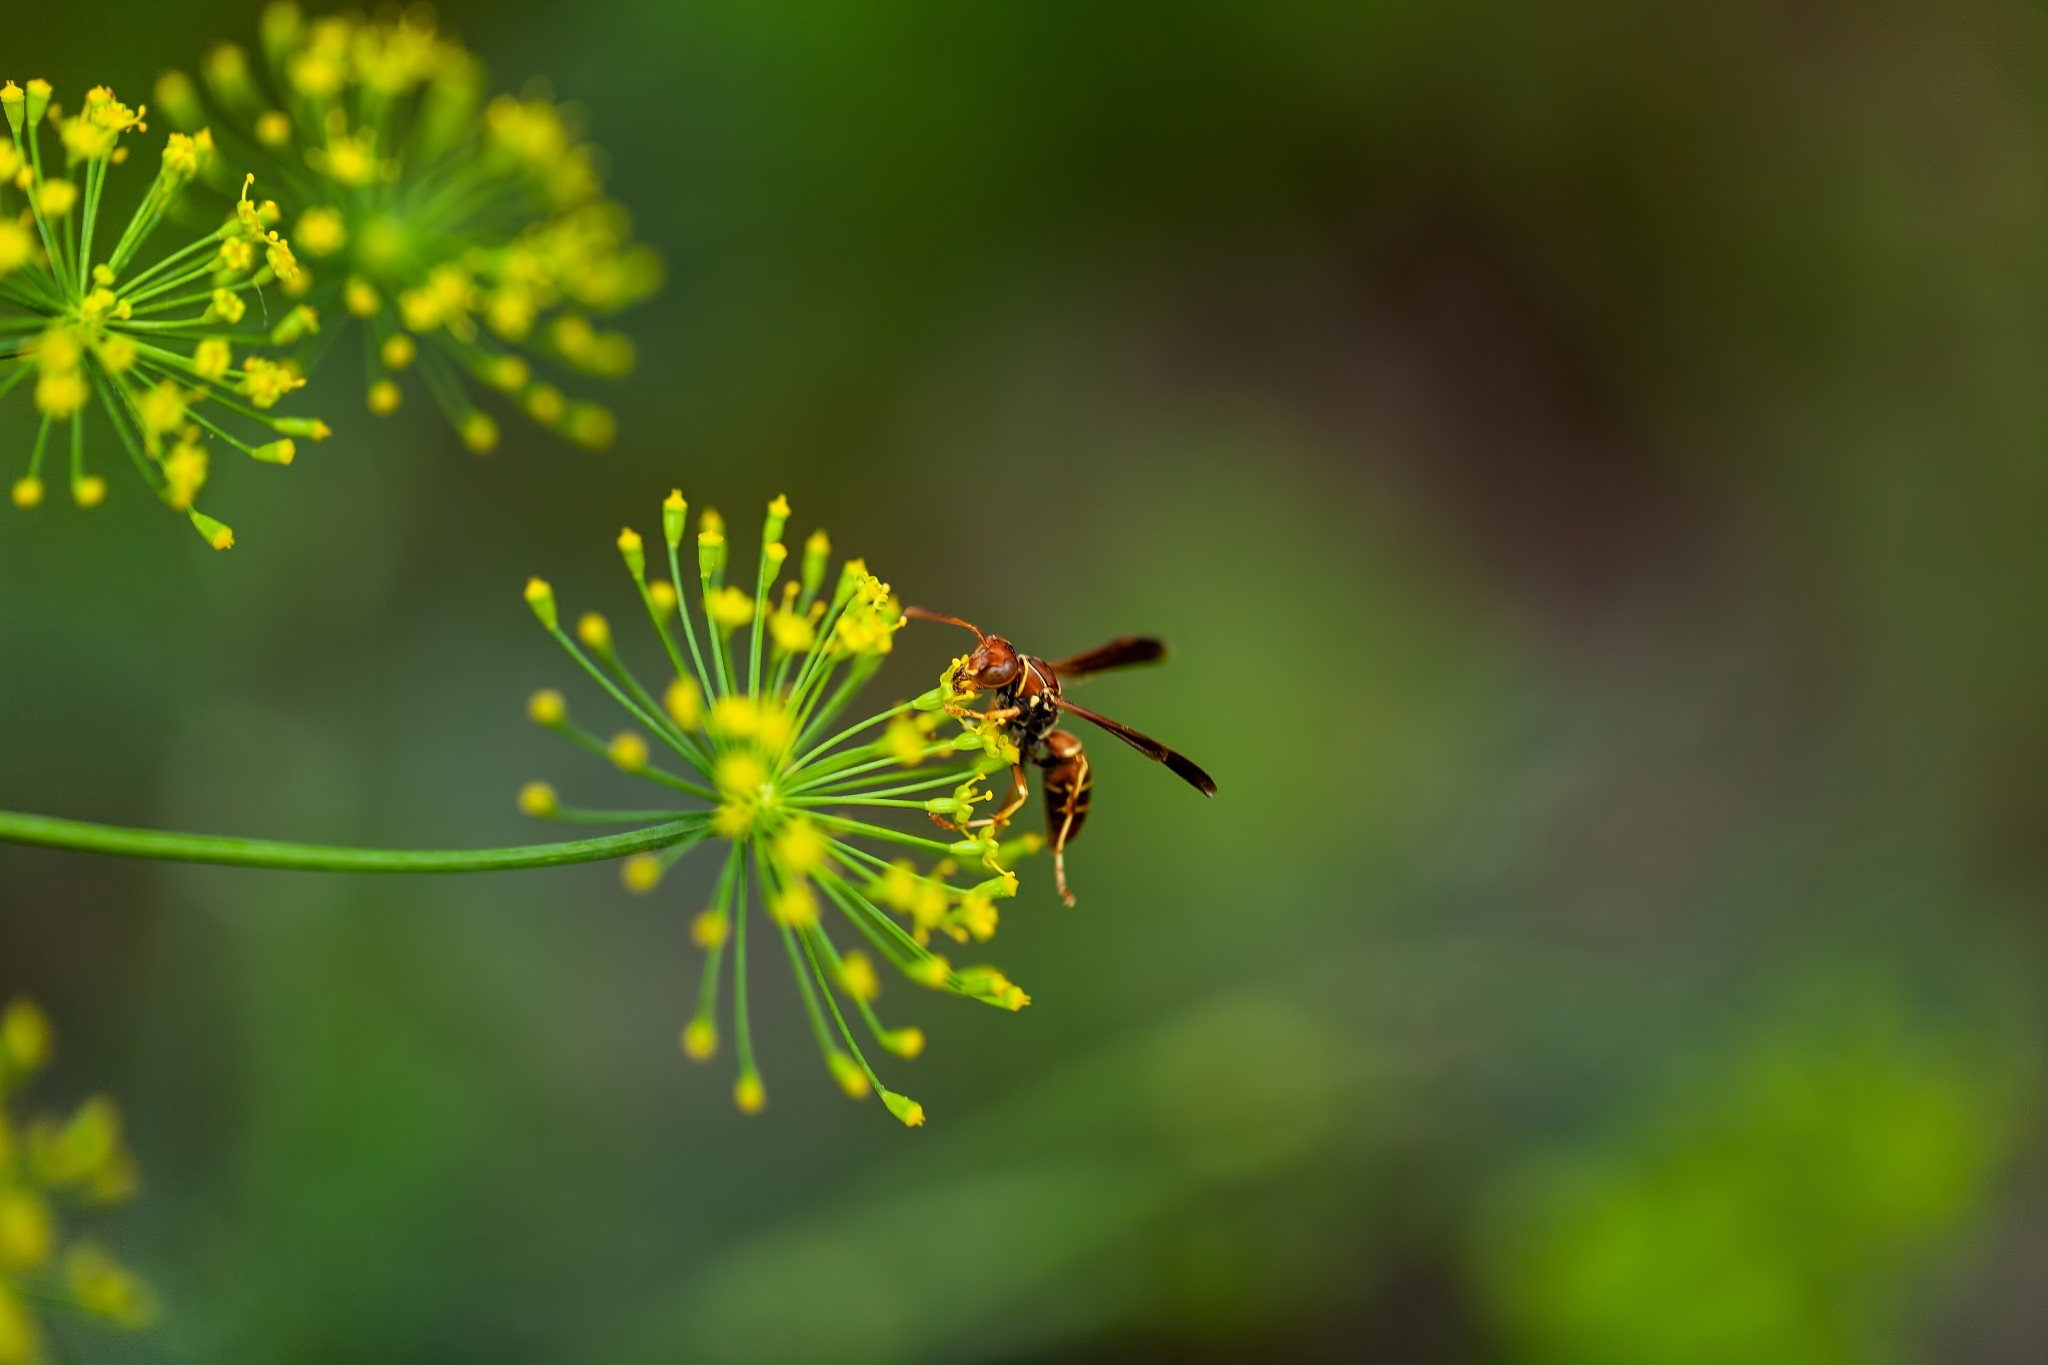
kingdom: Animalia
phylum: Arthropoda
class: Insecta
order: Hymenoptera
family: Eumenidae
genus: Polistes
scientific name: Polistes dorsalis
